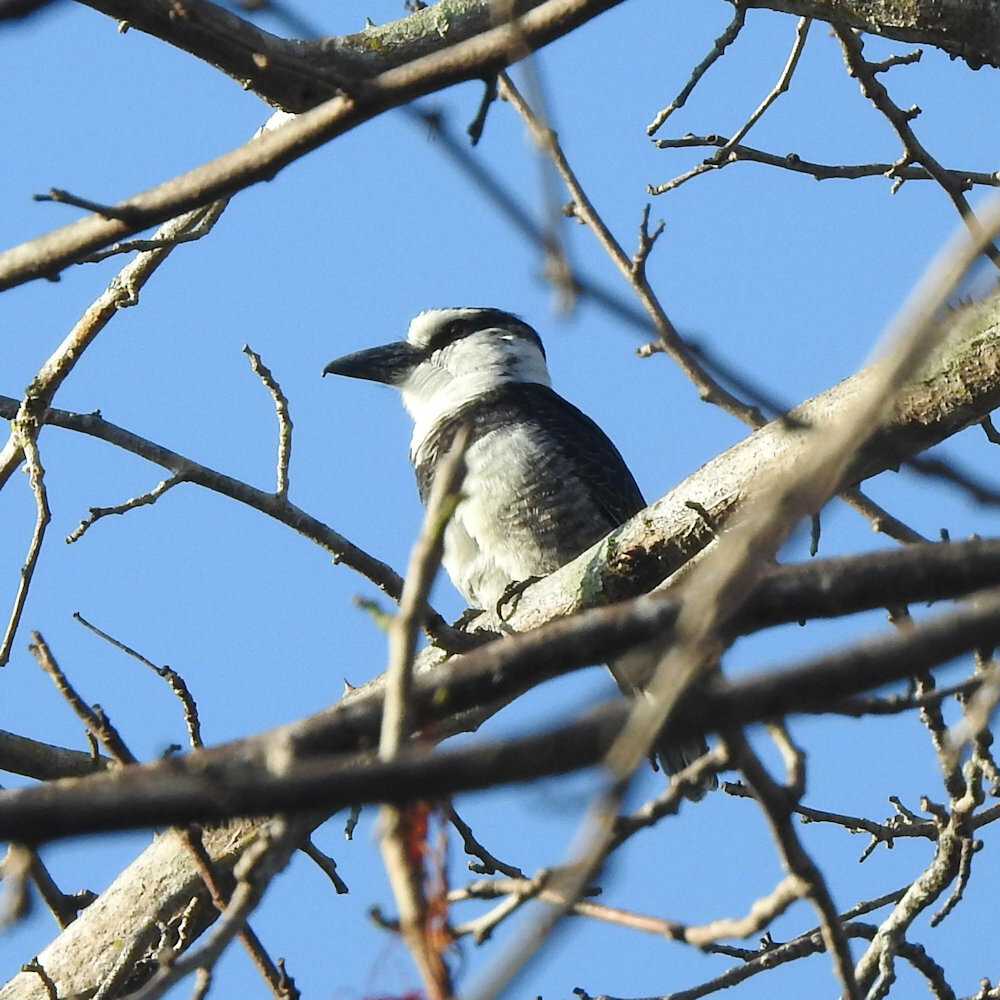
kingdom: Animalia
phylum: Chordata
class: Aves
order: Piciformes
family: Bucconidae
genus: Notharchus
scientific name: Notharchus hyperrhynchus
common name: White-necked puffbird
